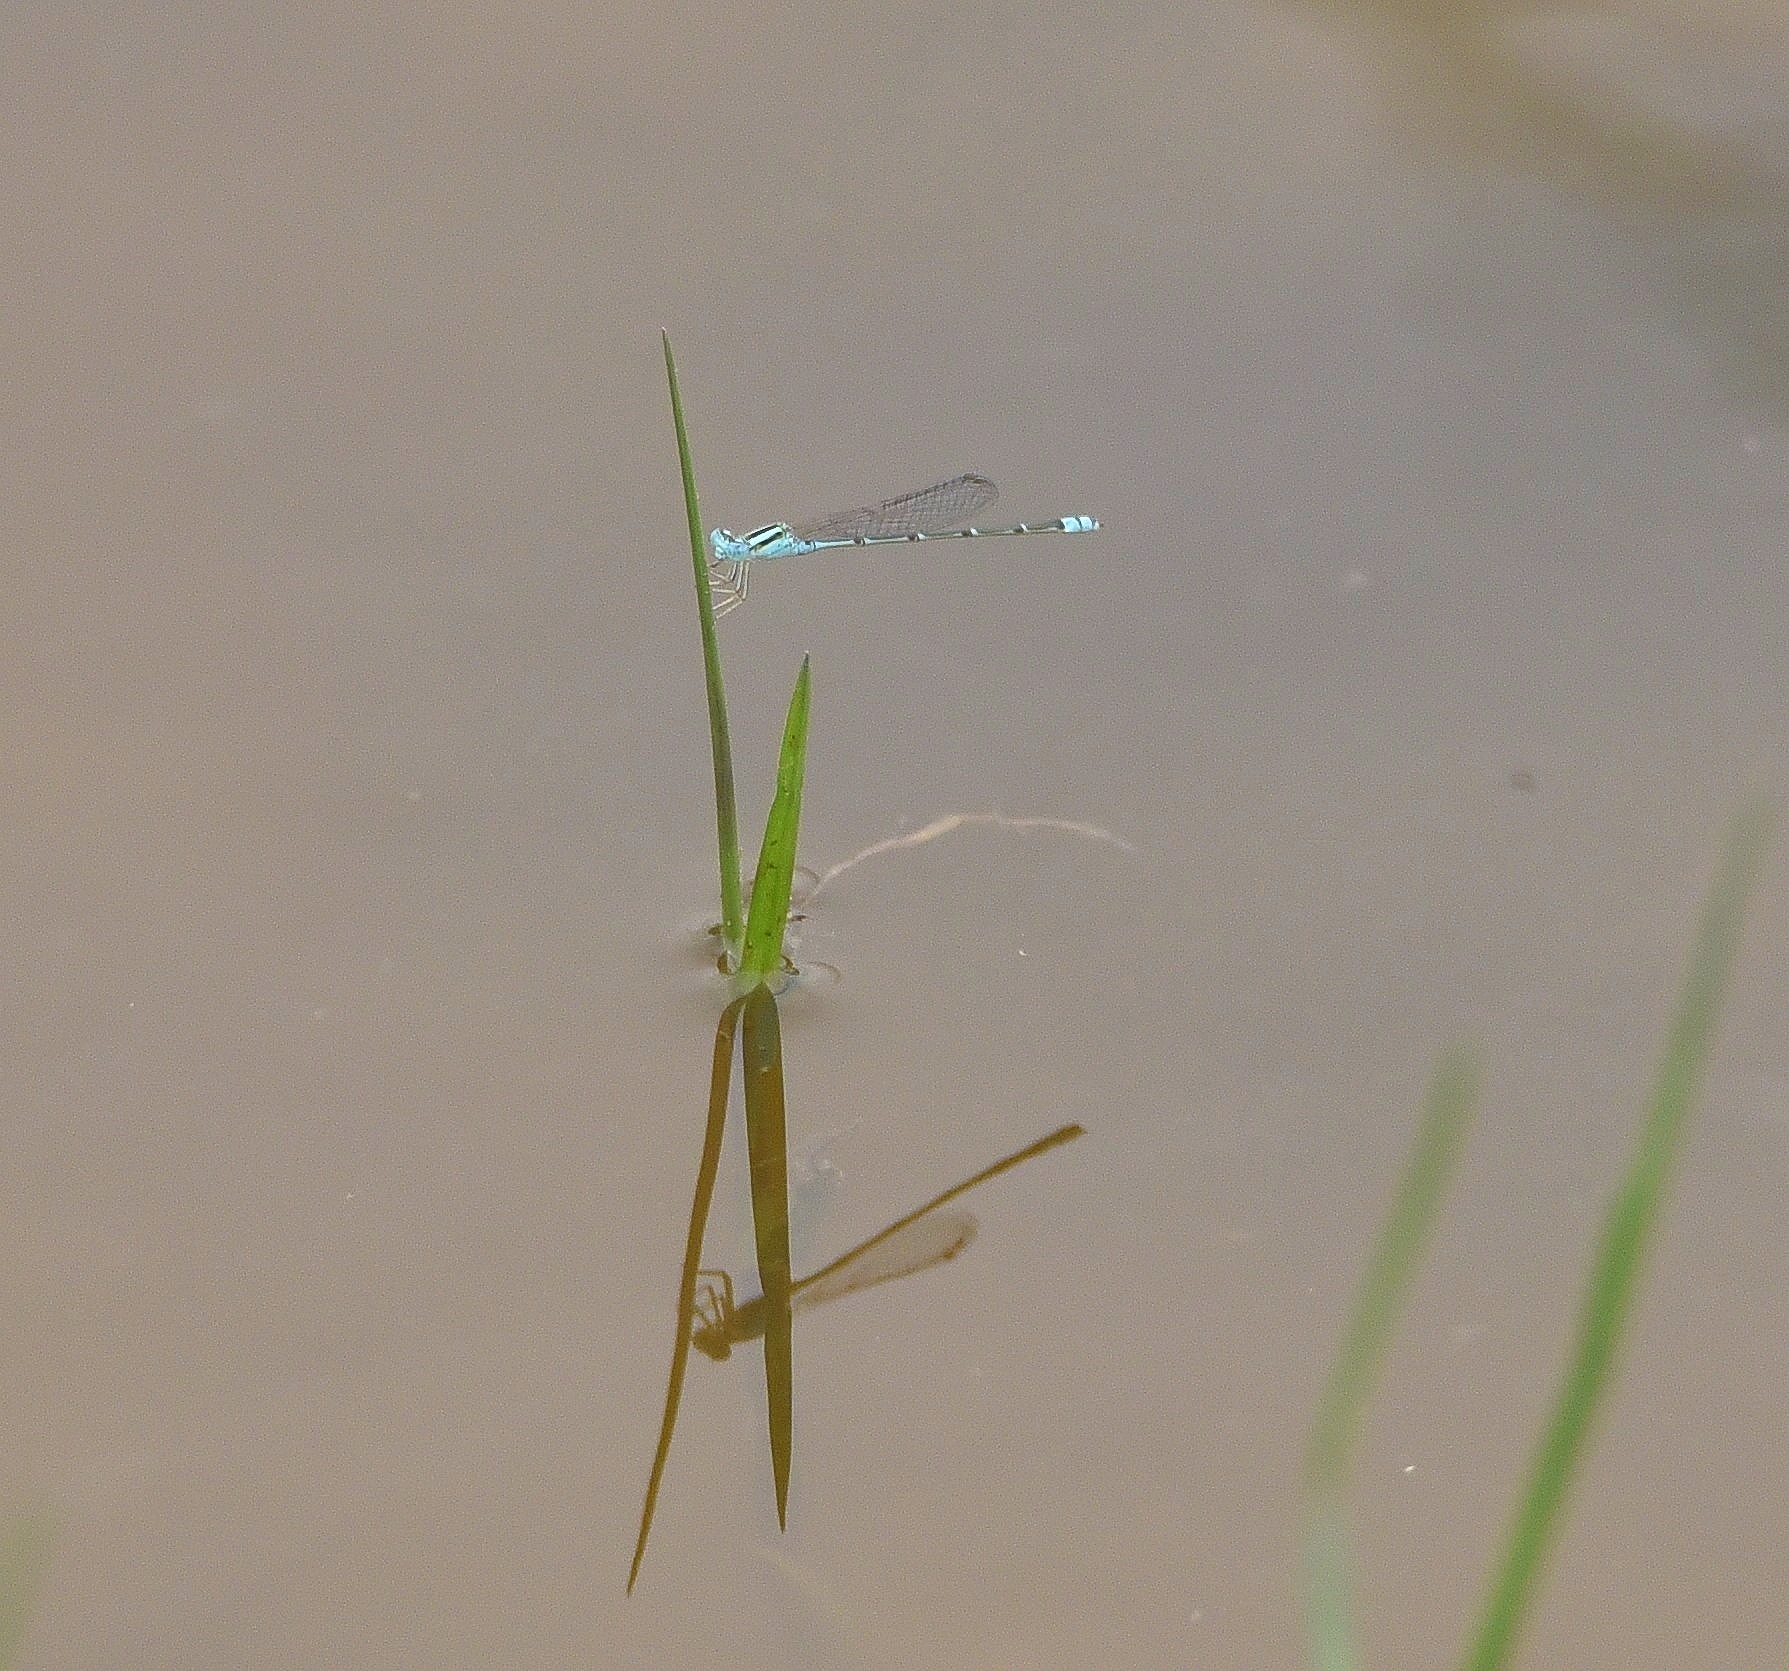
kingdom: Animalia
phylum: Arthropoda
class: Insecta
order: Odonata
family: Coenagrionidae
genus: Pseudagrion
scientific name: Pseudagrion microcephalum
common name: Blue riverdamsel
